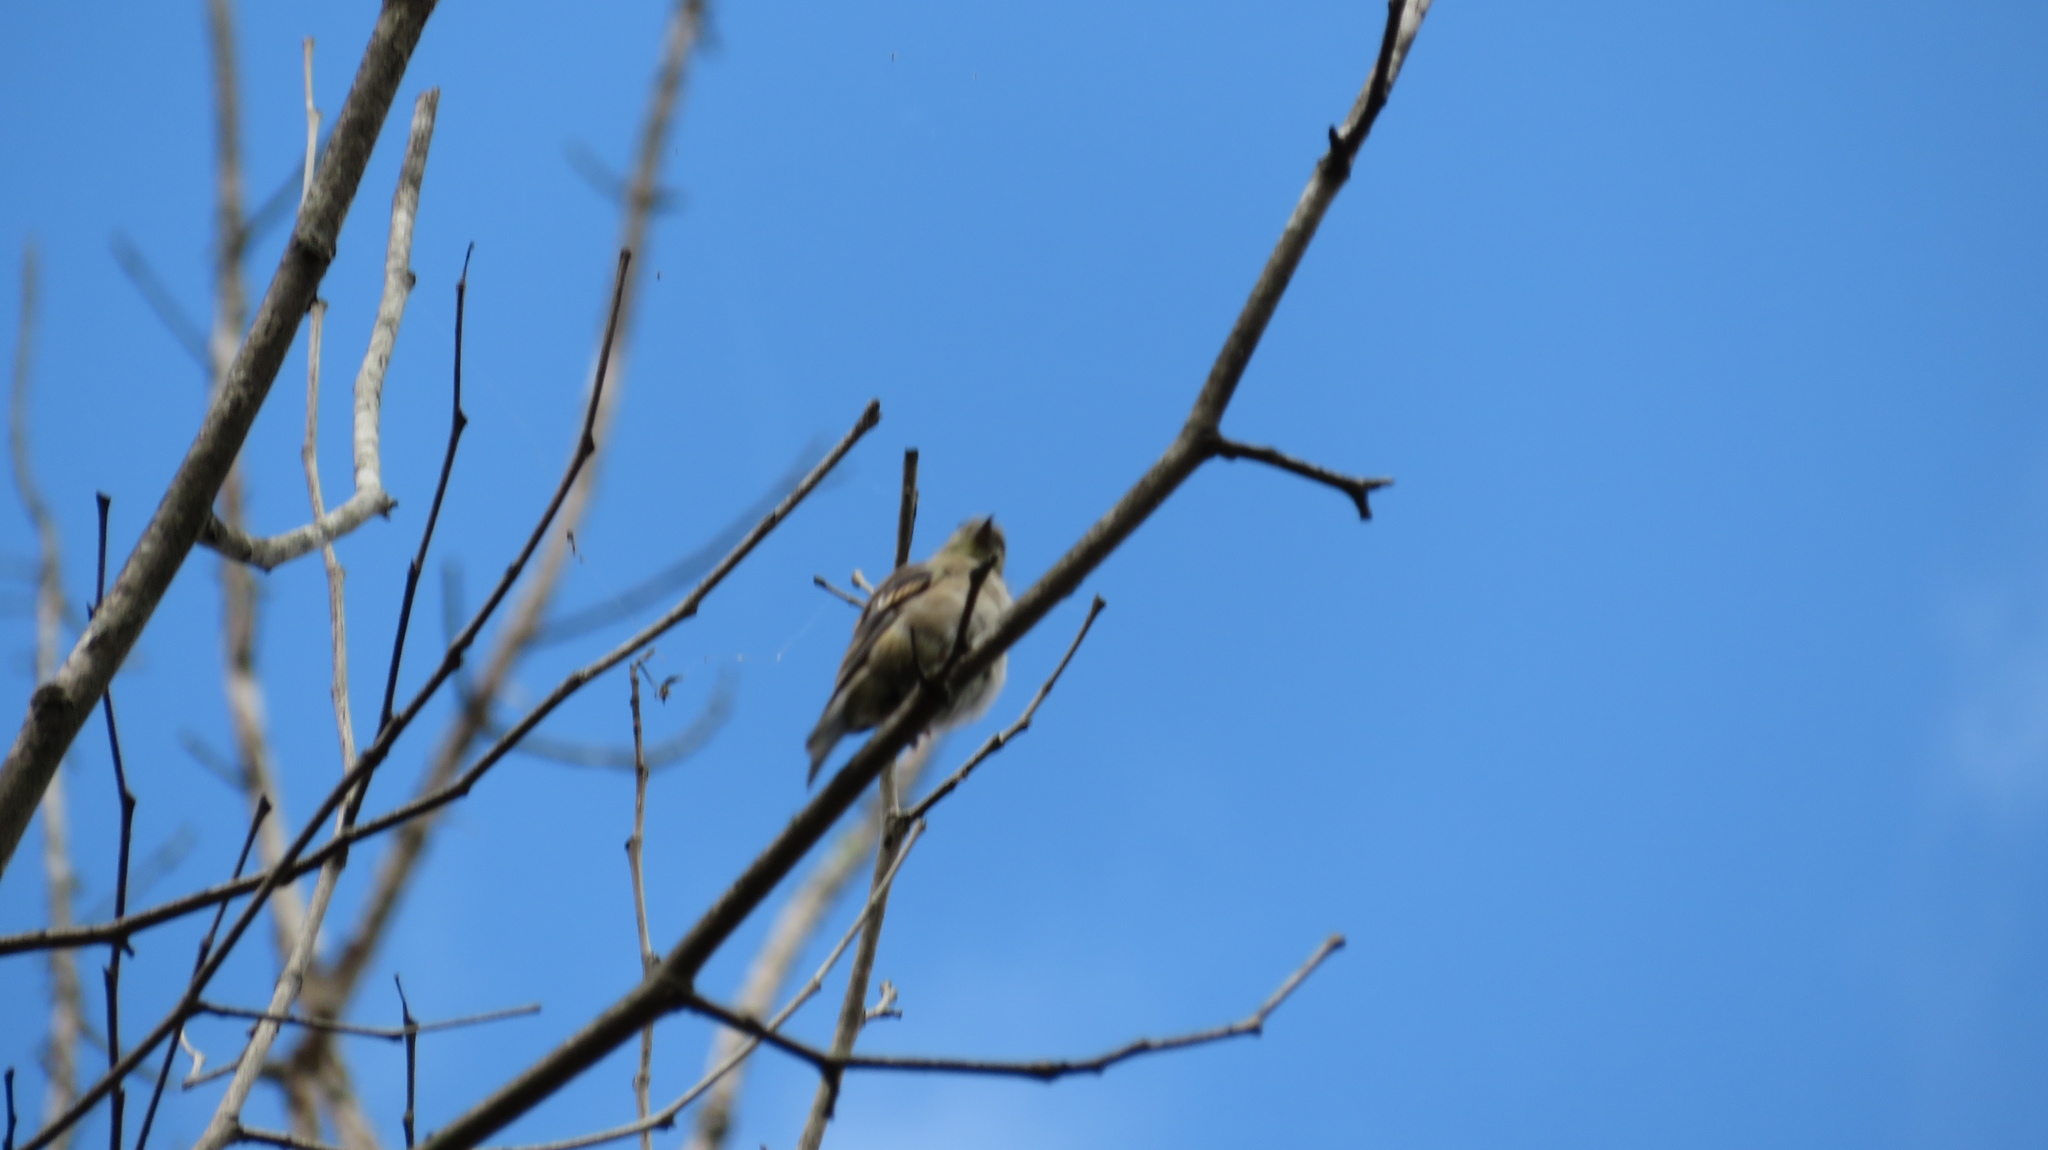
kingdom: Animalia
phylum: Chordata
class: Aves
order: Passeriformes
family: Fringillidae
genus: Spinus
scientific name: Spinus tristis
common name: American goldfinch
